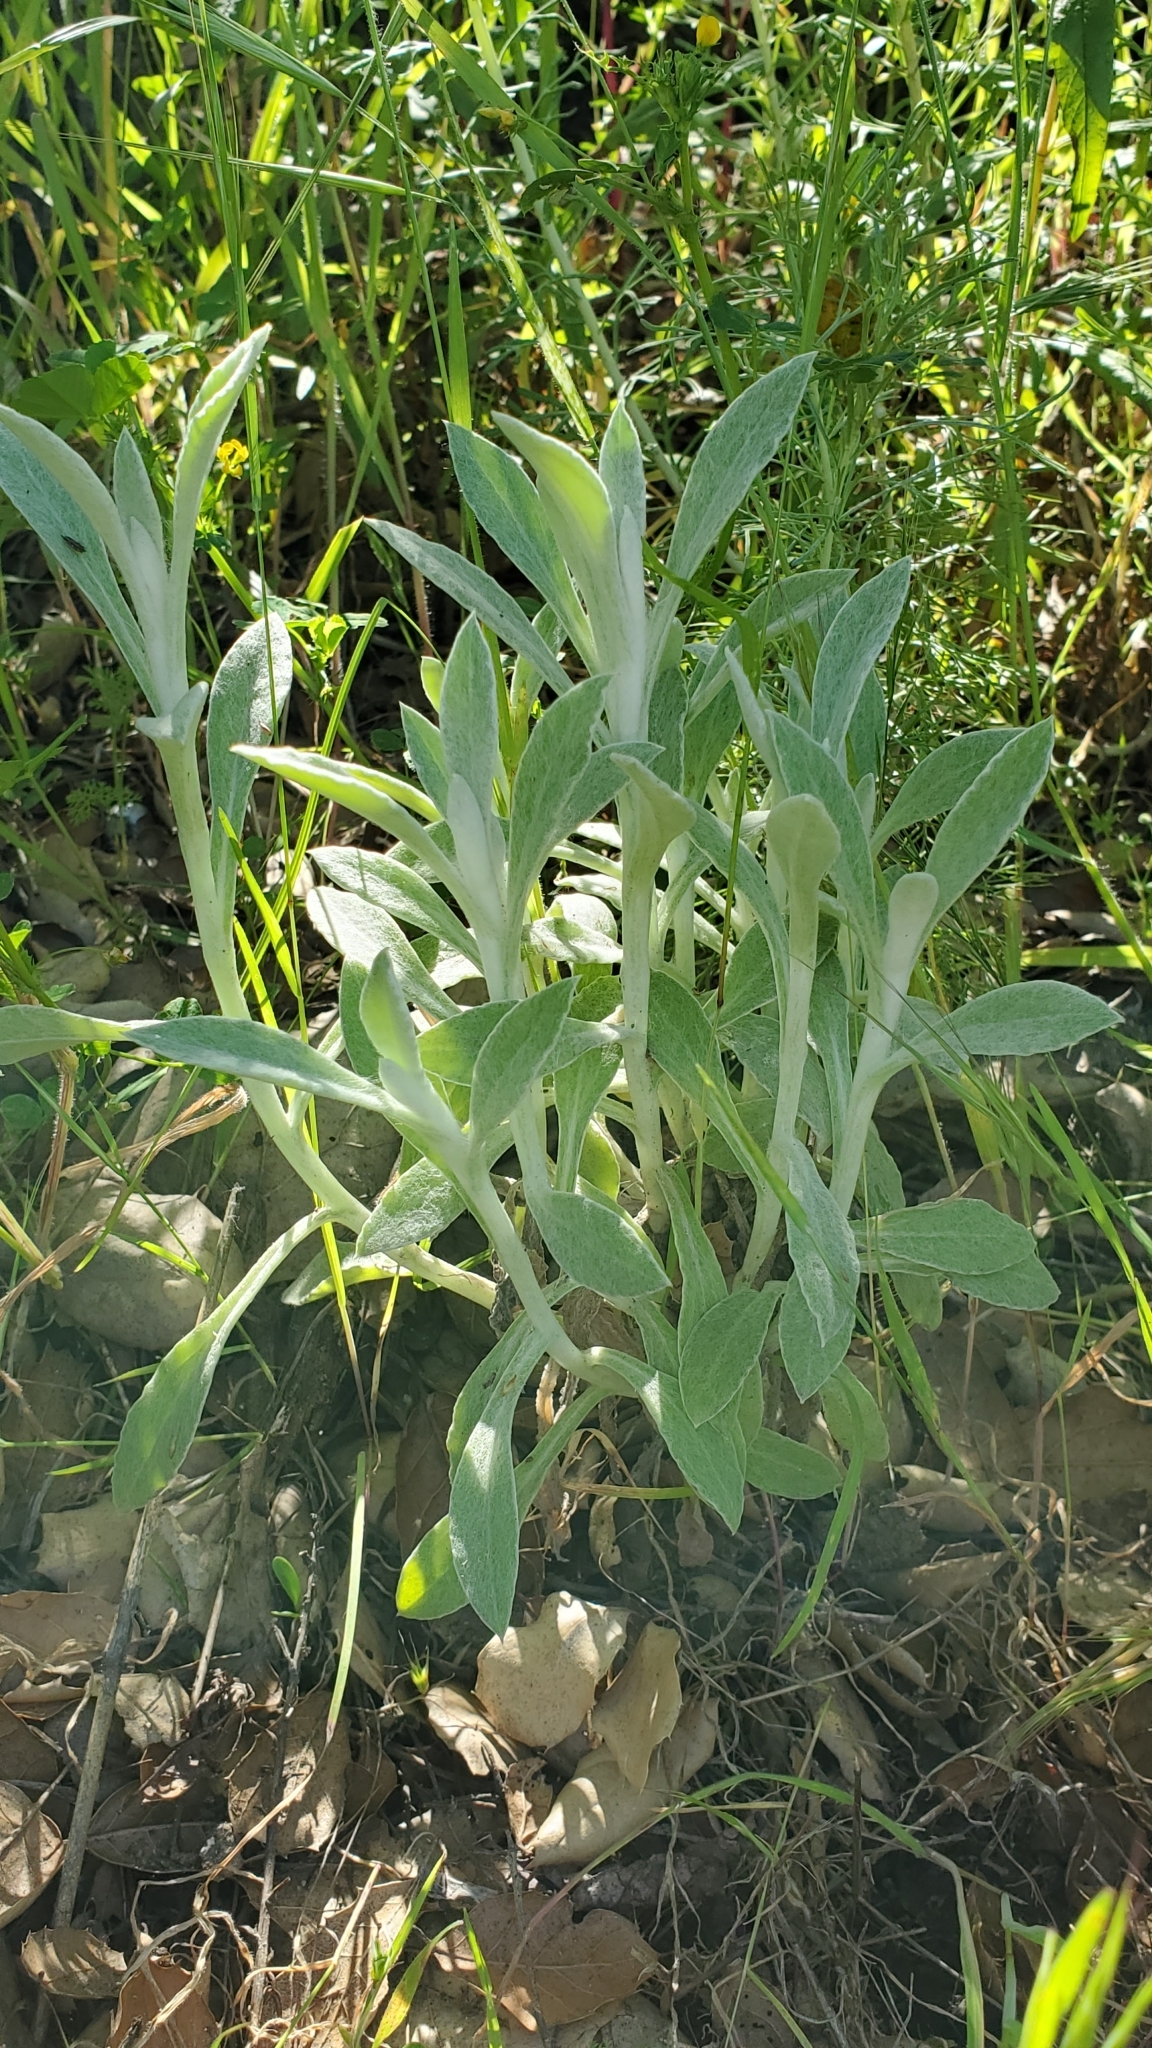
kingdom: Plantae
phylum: Tracheophyta
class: Magnoliopsida
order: Asterales
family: Asteraceae
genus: Pseudognaphalium
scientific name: Pseudognaphalium microcephalum
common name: San diego rabbit-tobacco
